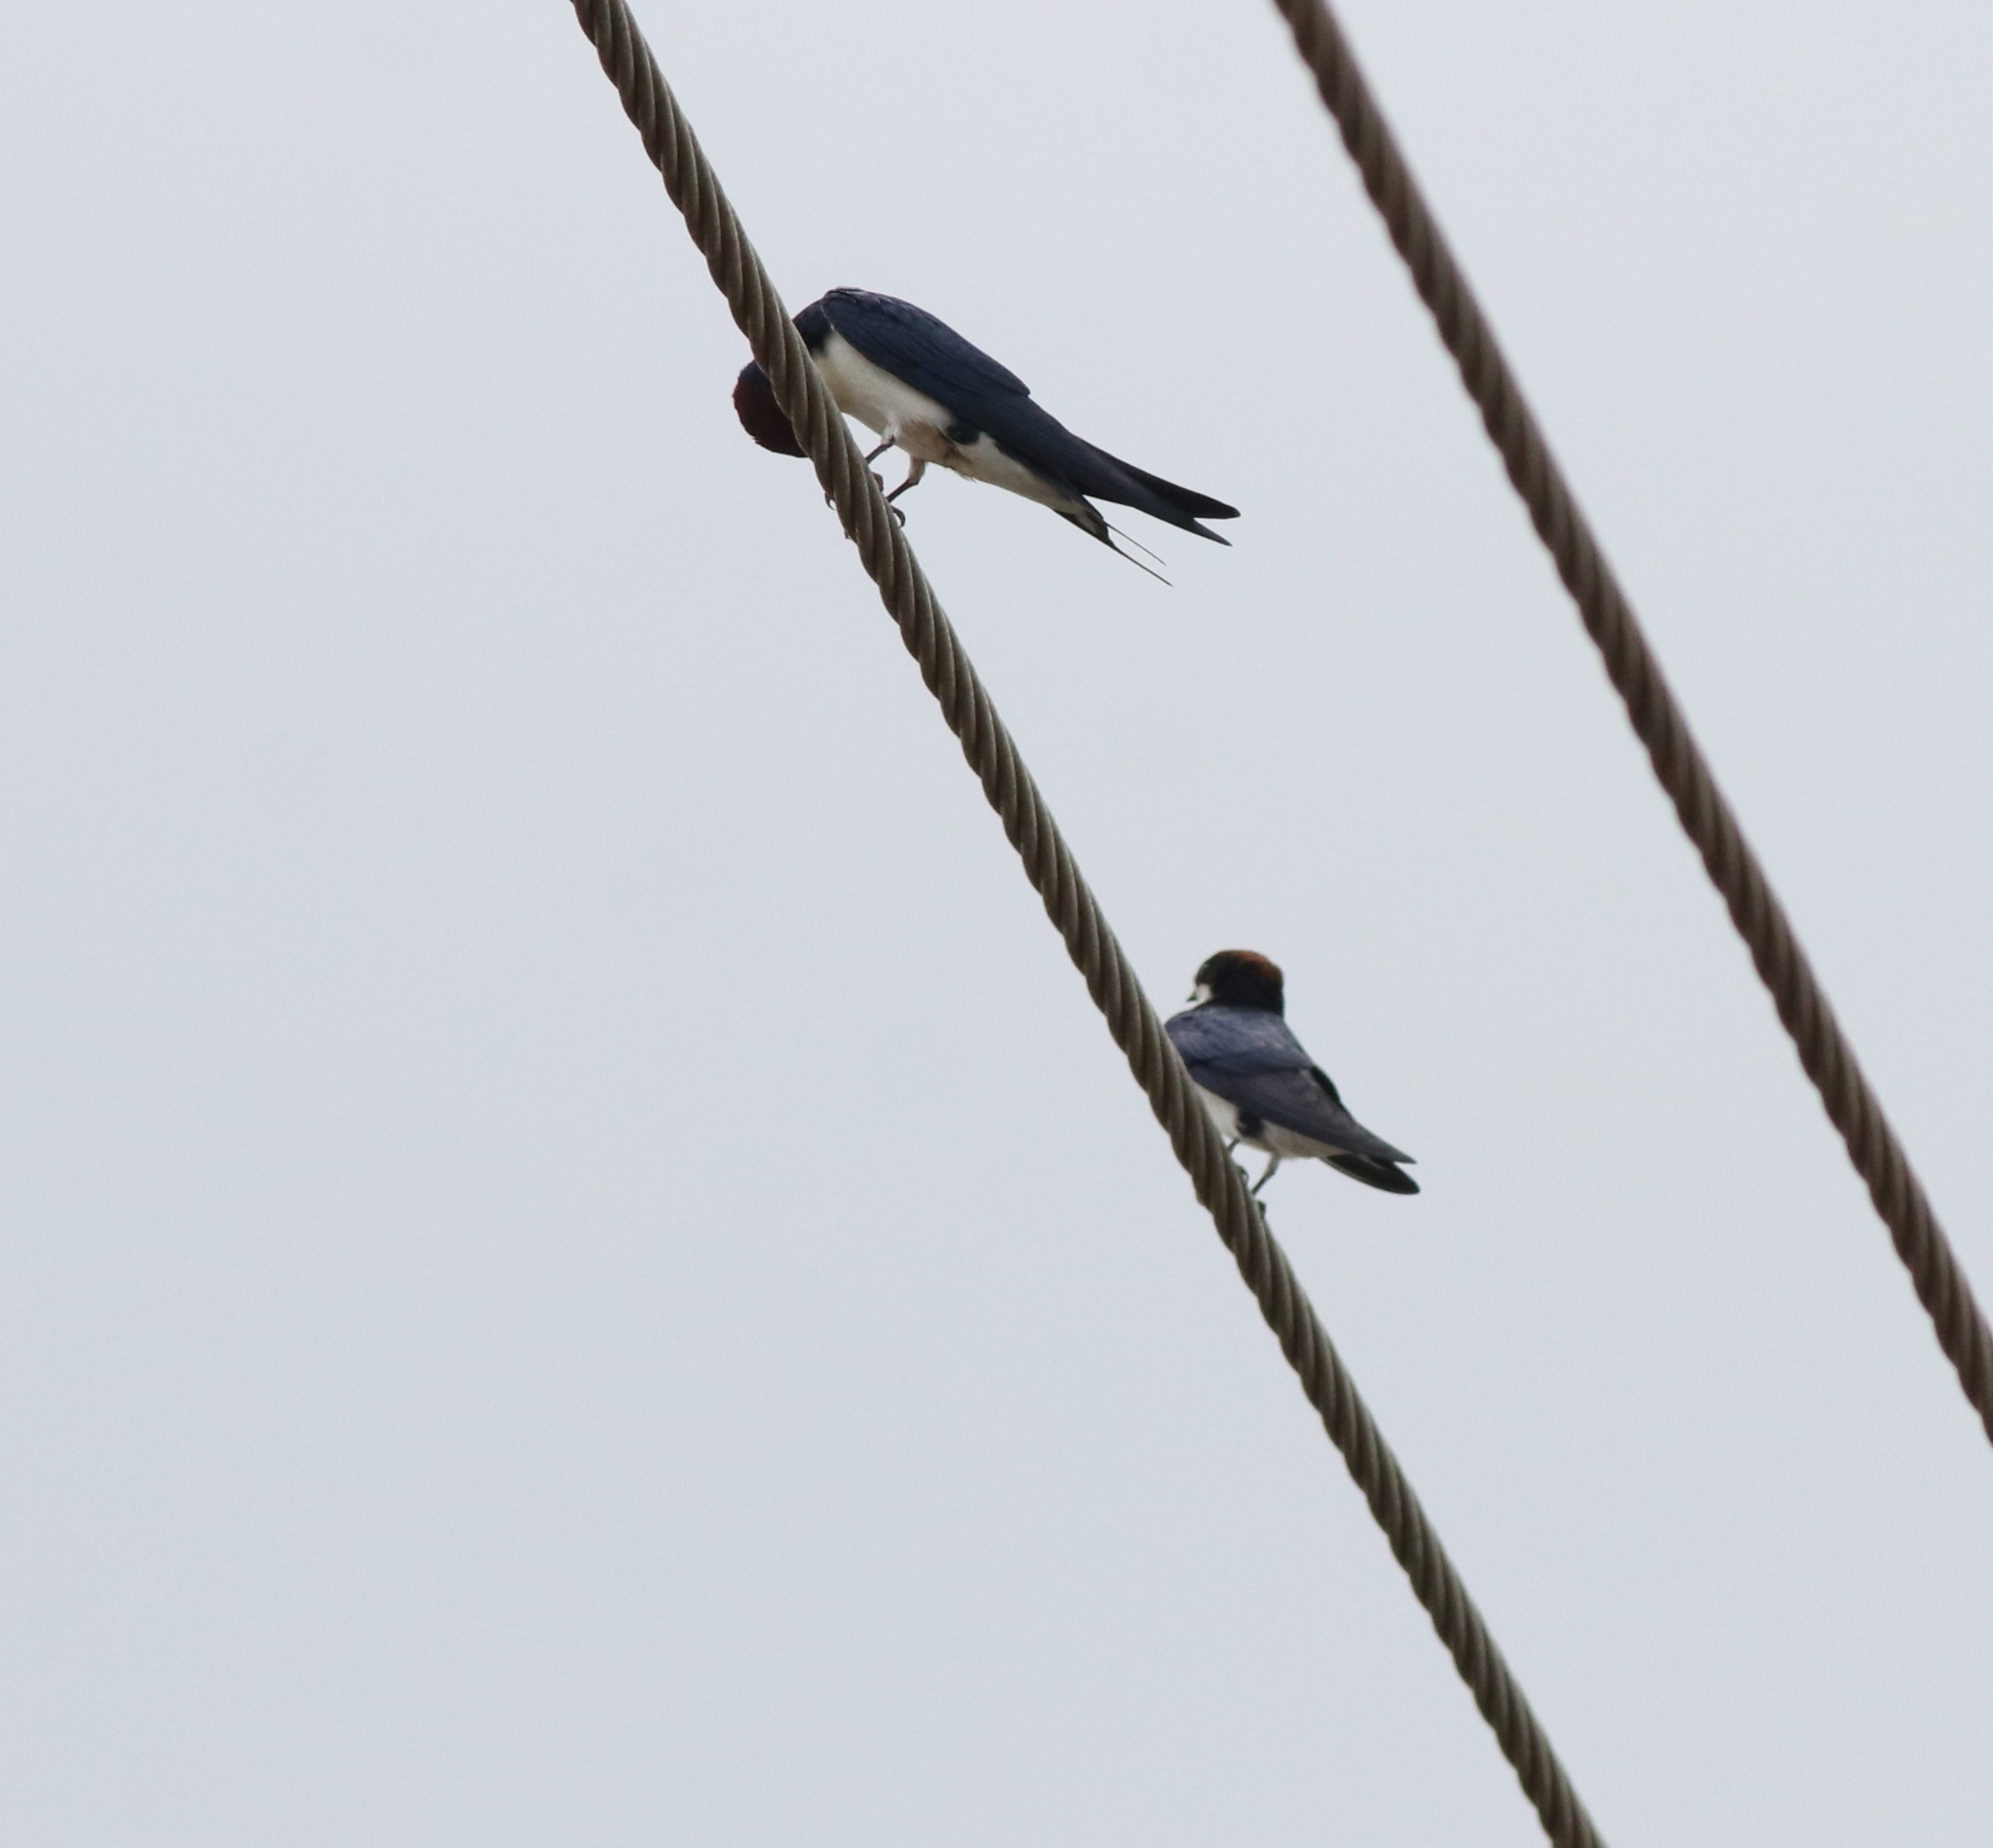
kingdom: Animalia
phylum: Chordata
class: Aves
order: Passeriformes
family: Hirundinidae
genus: Hirundo
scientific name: Hirundo smithii
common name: Wire-tailed swallow
